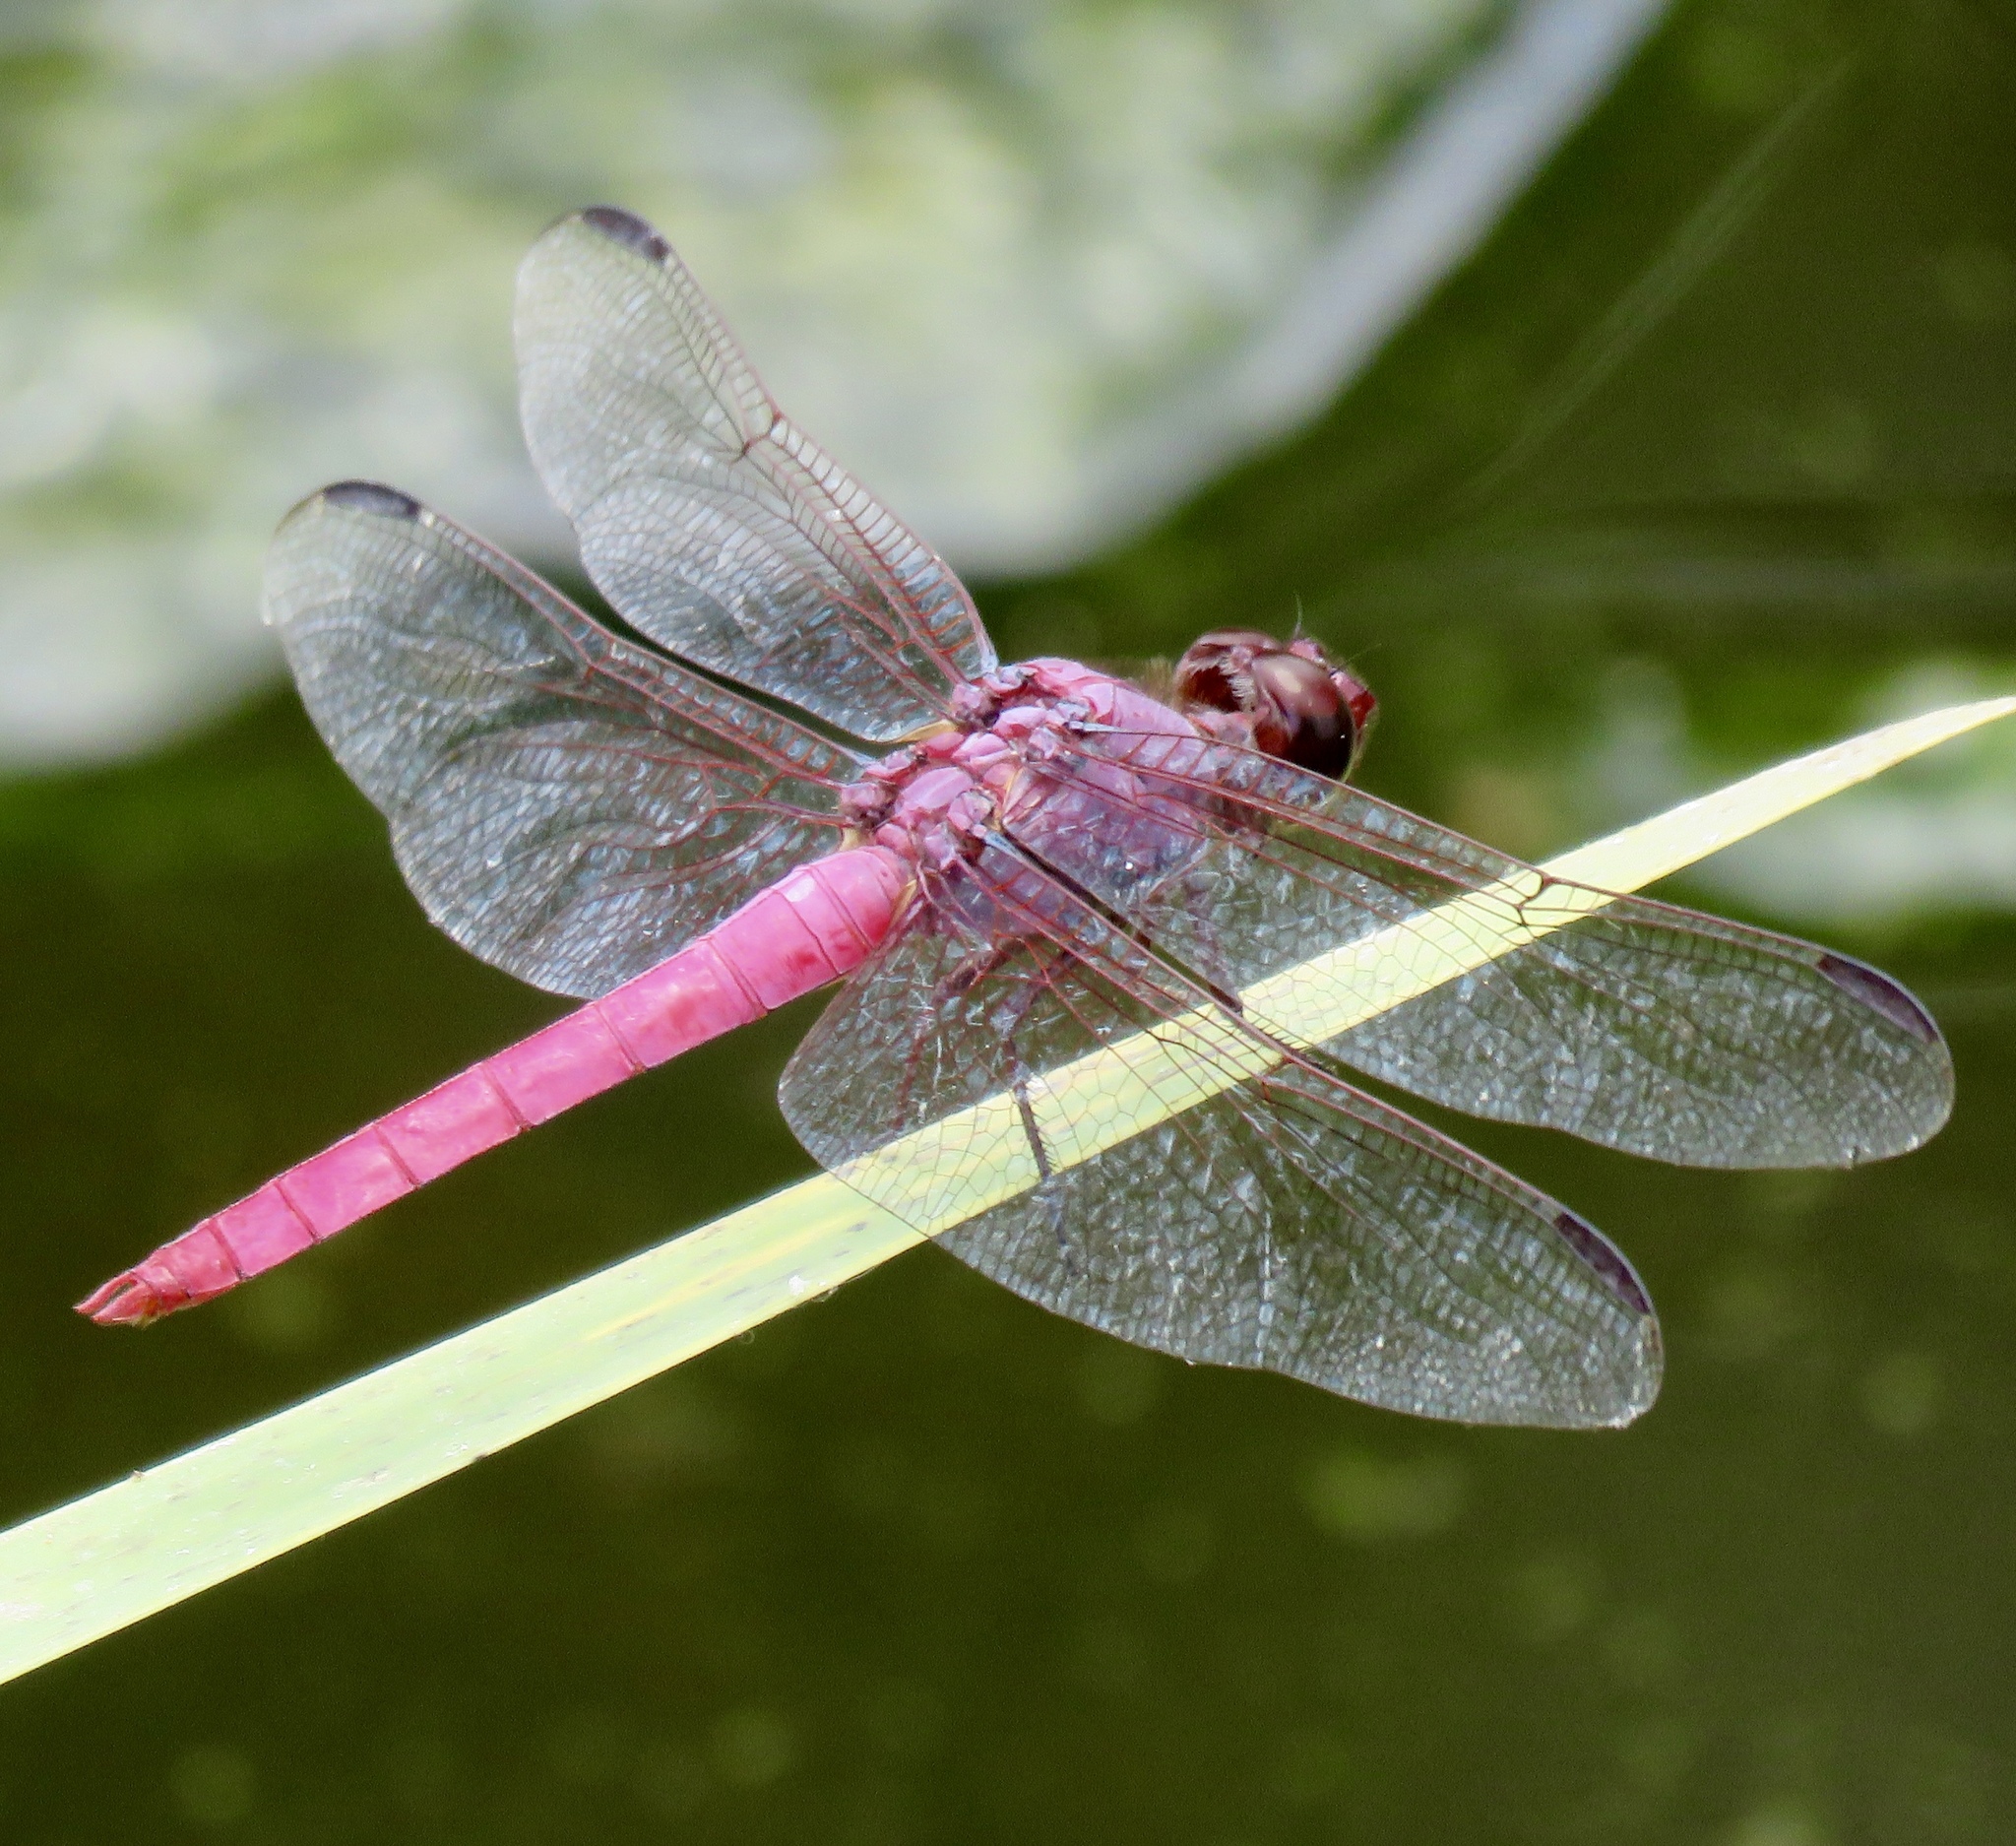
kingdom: Animalia
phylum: Arthropoda
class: Insecta
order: Odonata
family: Libellulidae
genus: Orthemis
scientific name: Orthemis ferruginea
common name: Roseate skimmer
